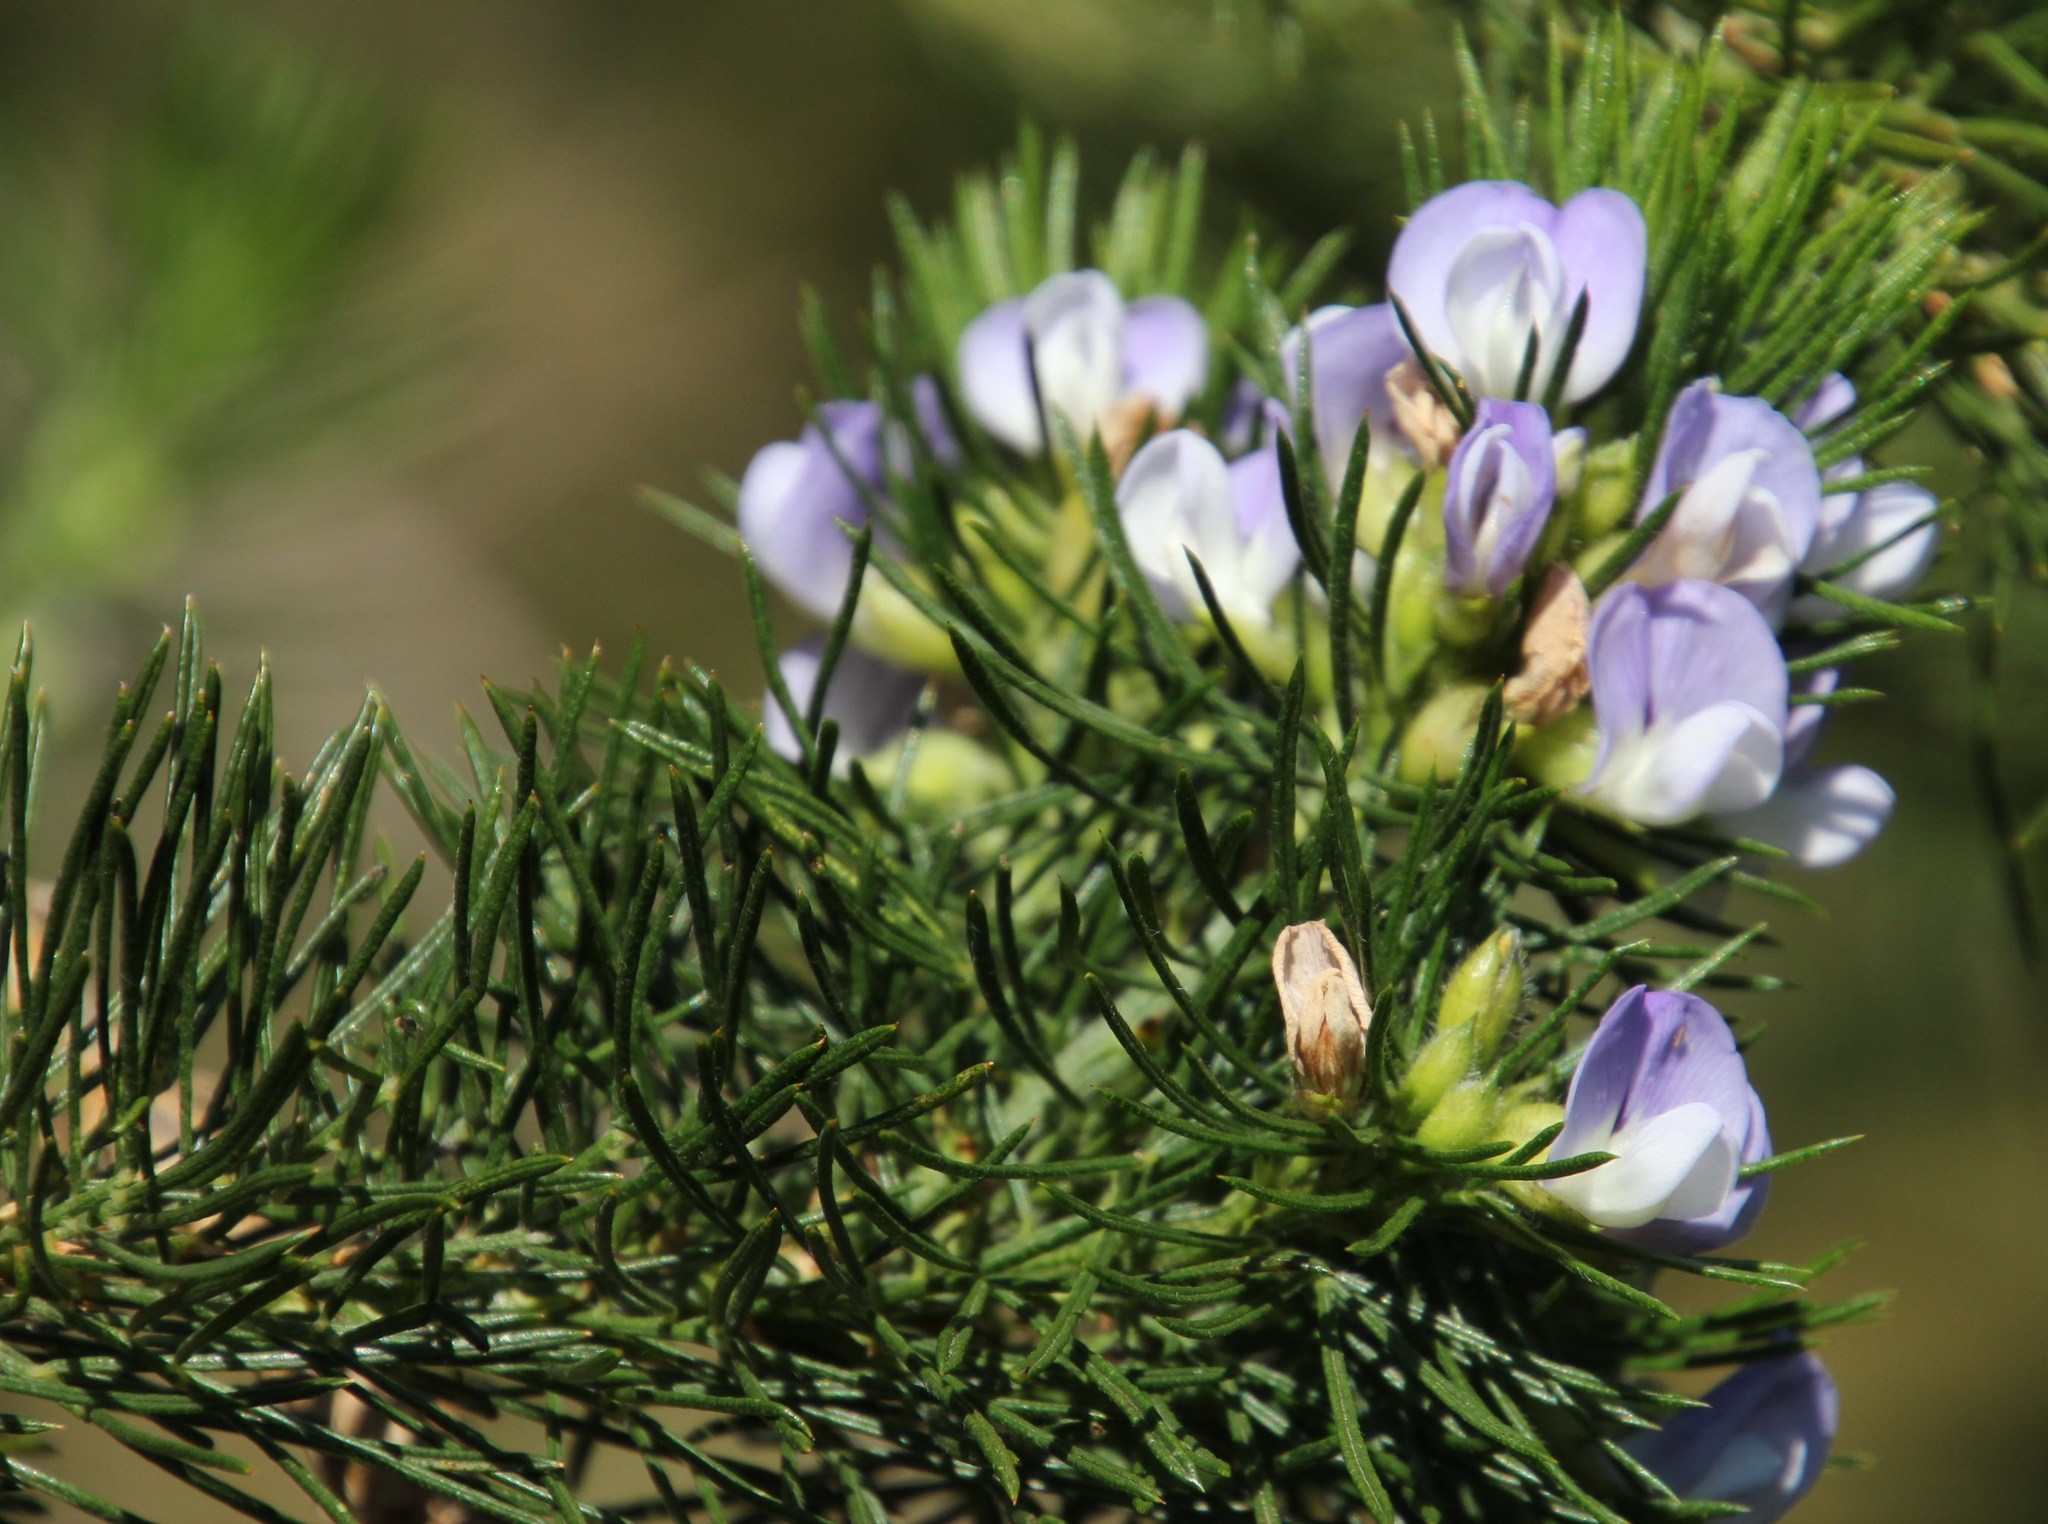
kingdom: Plantae
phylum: Tracheophyta
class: Magnoliopsida
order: Fabales
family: Fabaceae
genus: Psoralea
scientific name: Psoralea pinnata
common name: African scurfpea
